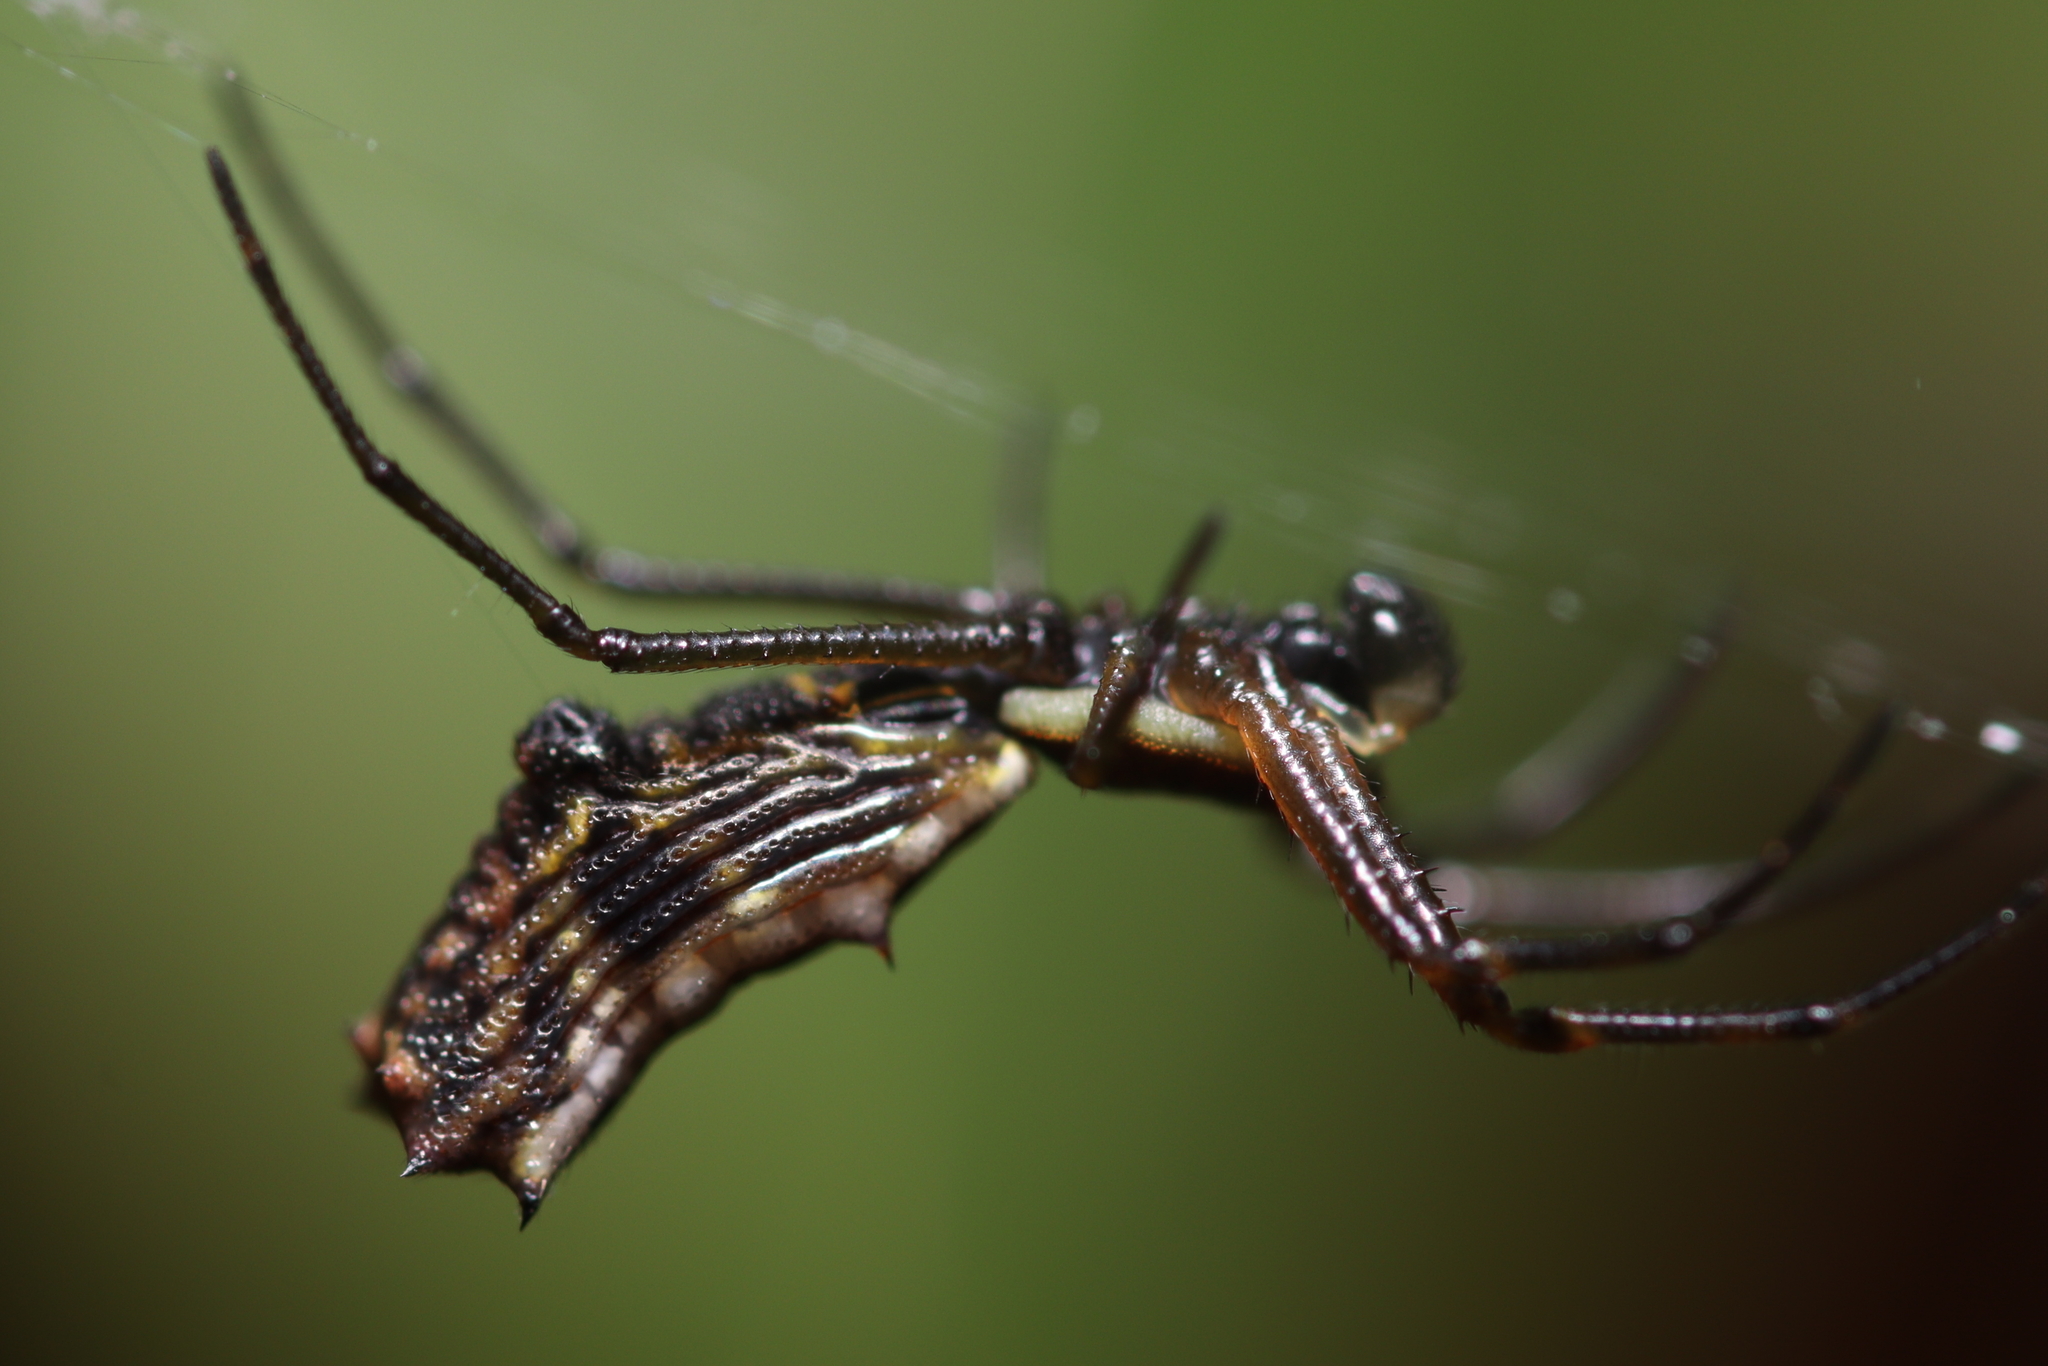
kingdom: Animalia
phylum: Arthropoda
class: Arachnida
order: Araneae
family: Araneidae
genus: Micrathena
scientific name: Micrathena nigrichelis
